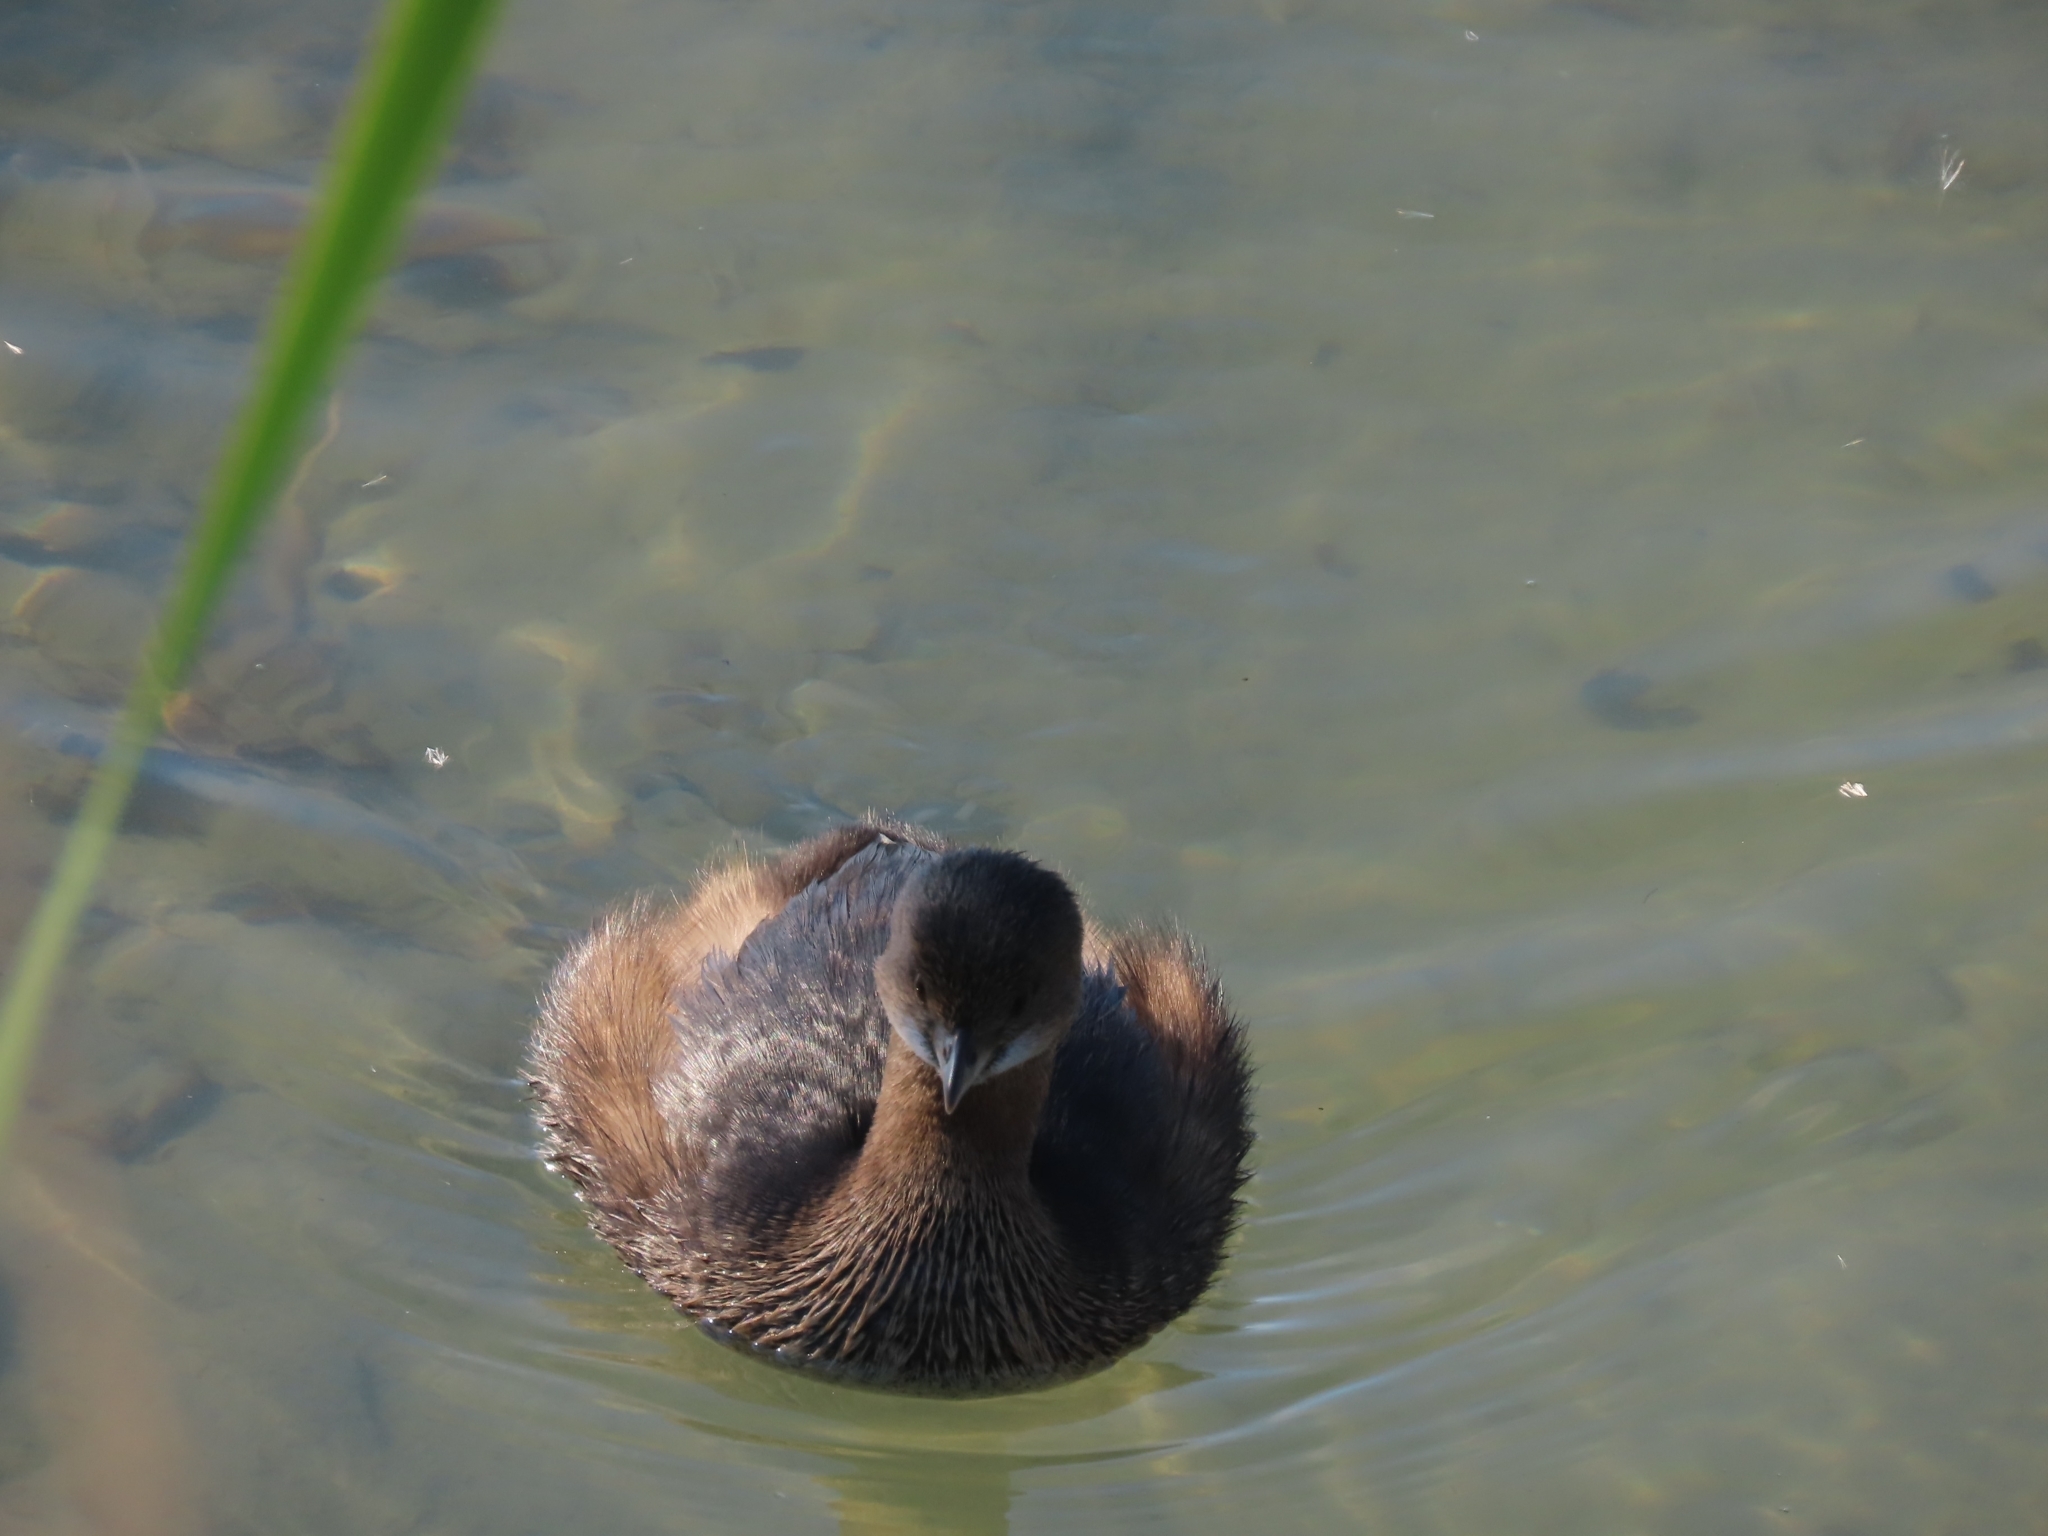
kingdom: Animalia
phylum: Chordata
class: Aves
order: Podicipediformes
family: Podicipedidae
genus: Podilymbus
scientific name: Podilymbus podiceps
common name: Pied-billed grebe
